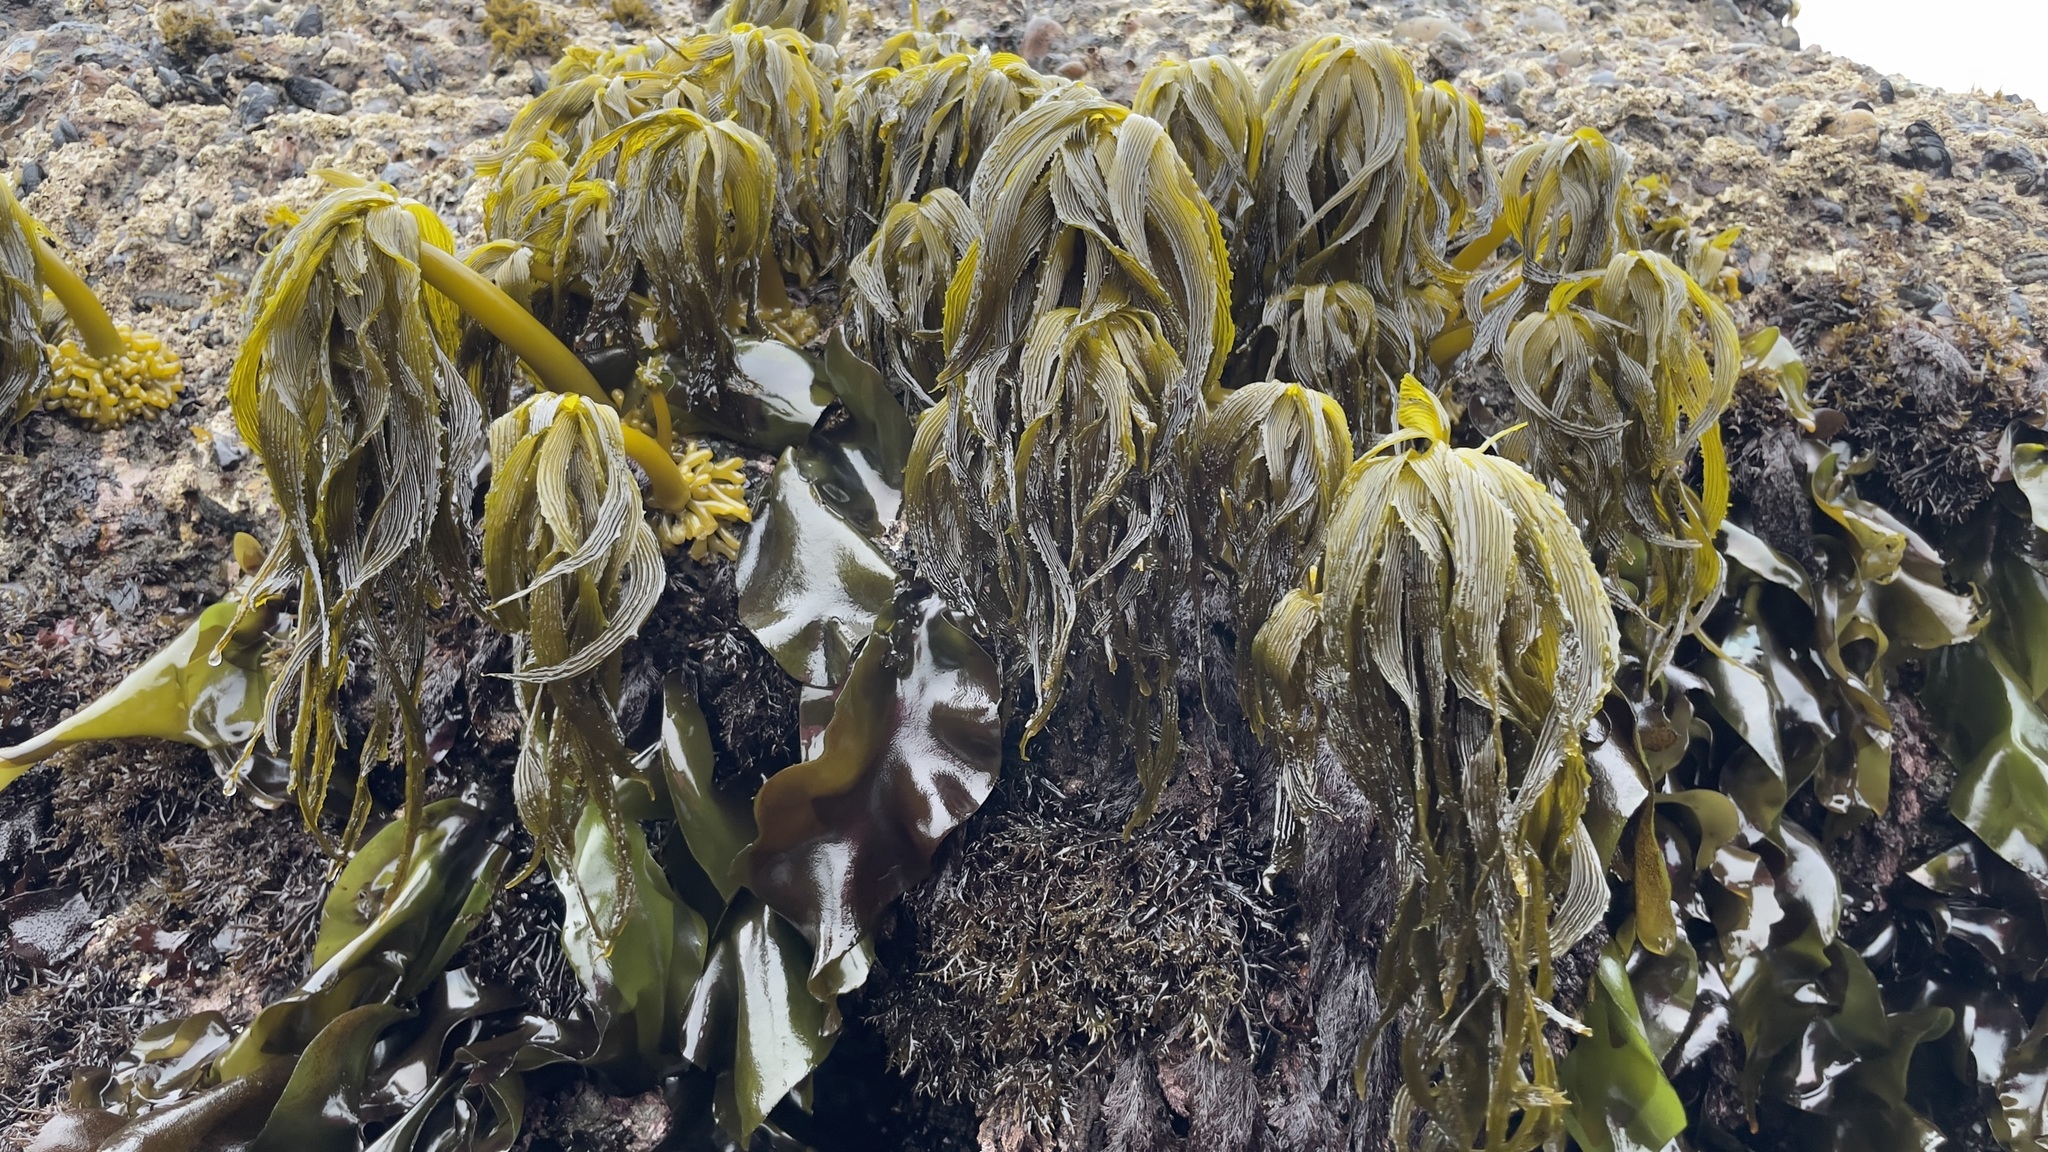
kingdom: Chromista
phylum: Ochrophyta
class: Phaeophyceae
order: Laminariales
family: Laminariaceae
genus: Postelsia
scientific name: Postelsia palmiformis
